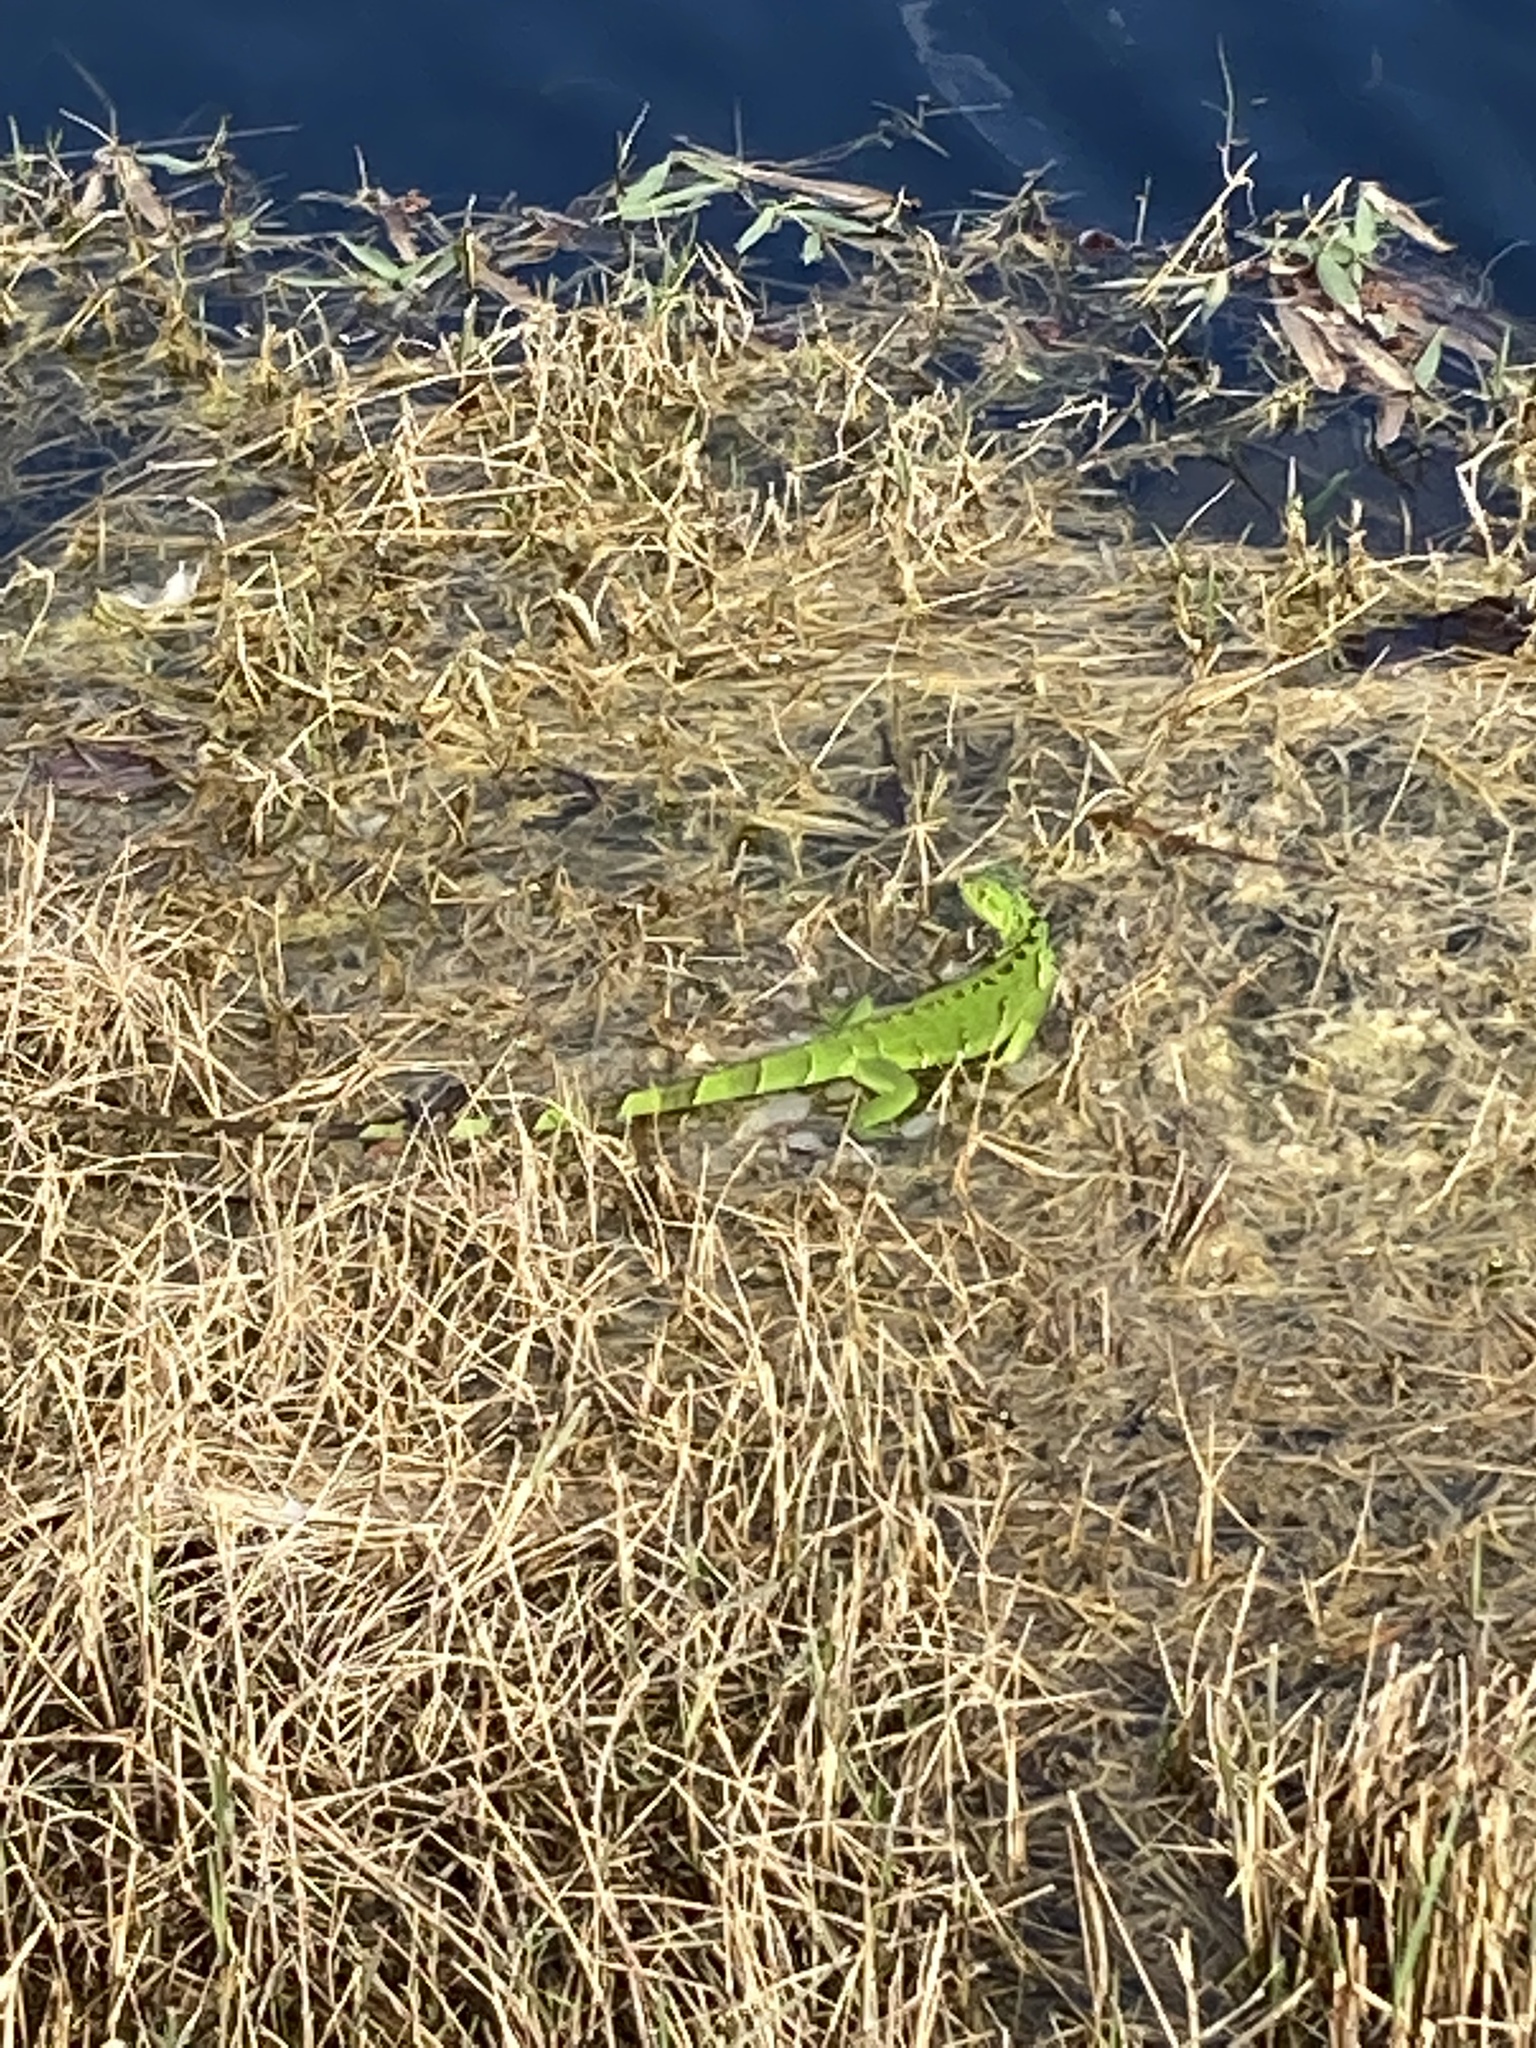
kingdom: Animalia
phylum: Chordata
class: Squamata
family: Iguanidae
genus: Iguana
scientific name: Iguana iguana
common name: Green iguana
